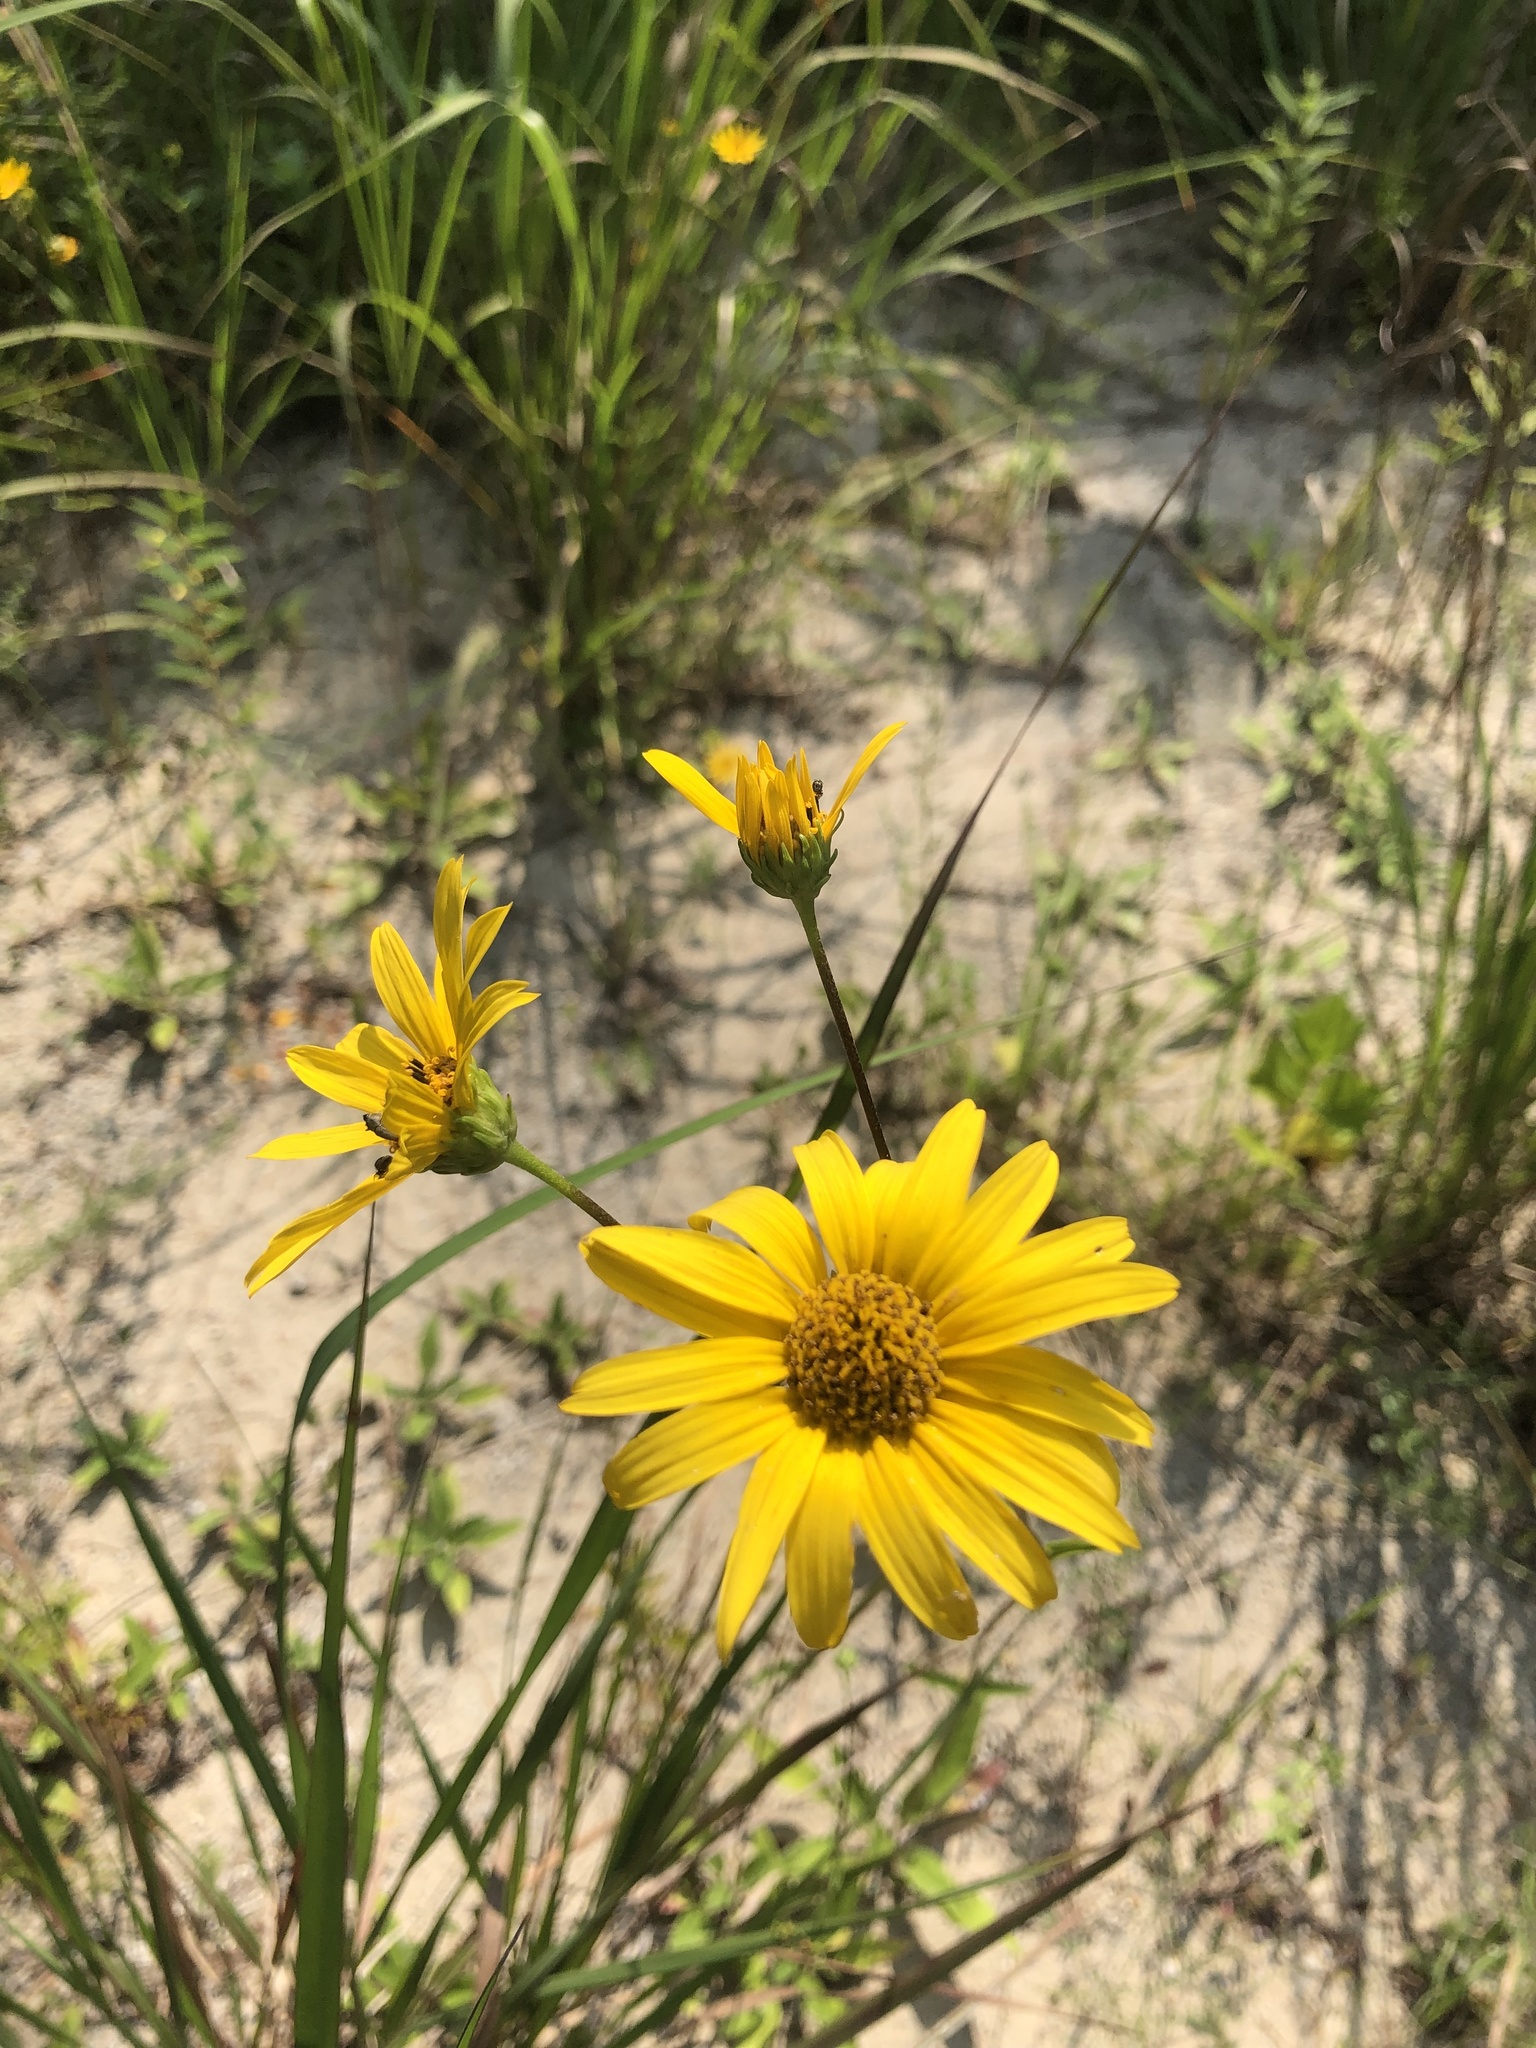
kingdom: Plantae
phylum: Tracheophyta
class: Magnoliopsida
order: Asterales
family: Asteraceae
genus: Helianthus
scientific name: Helianthus occidentalis
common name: Western sunflower
